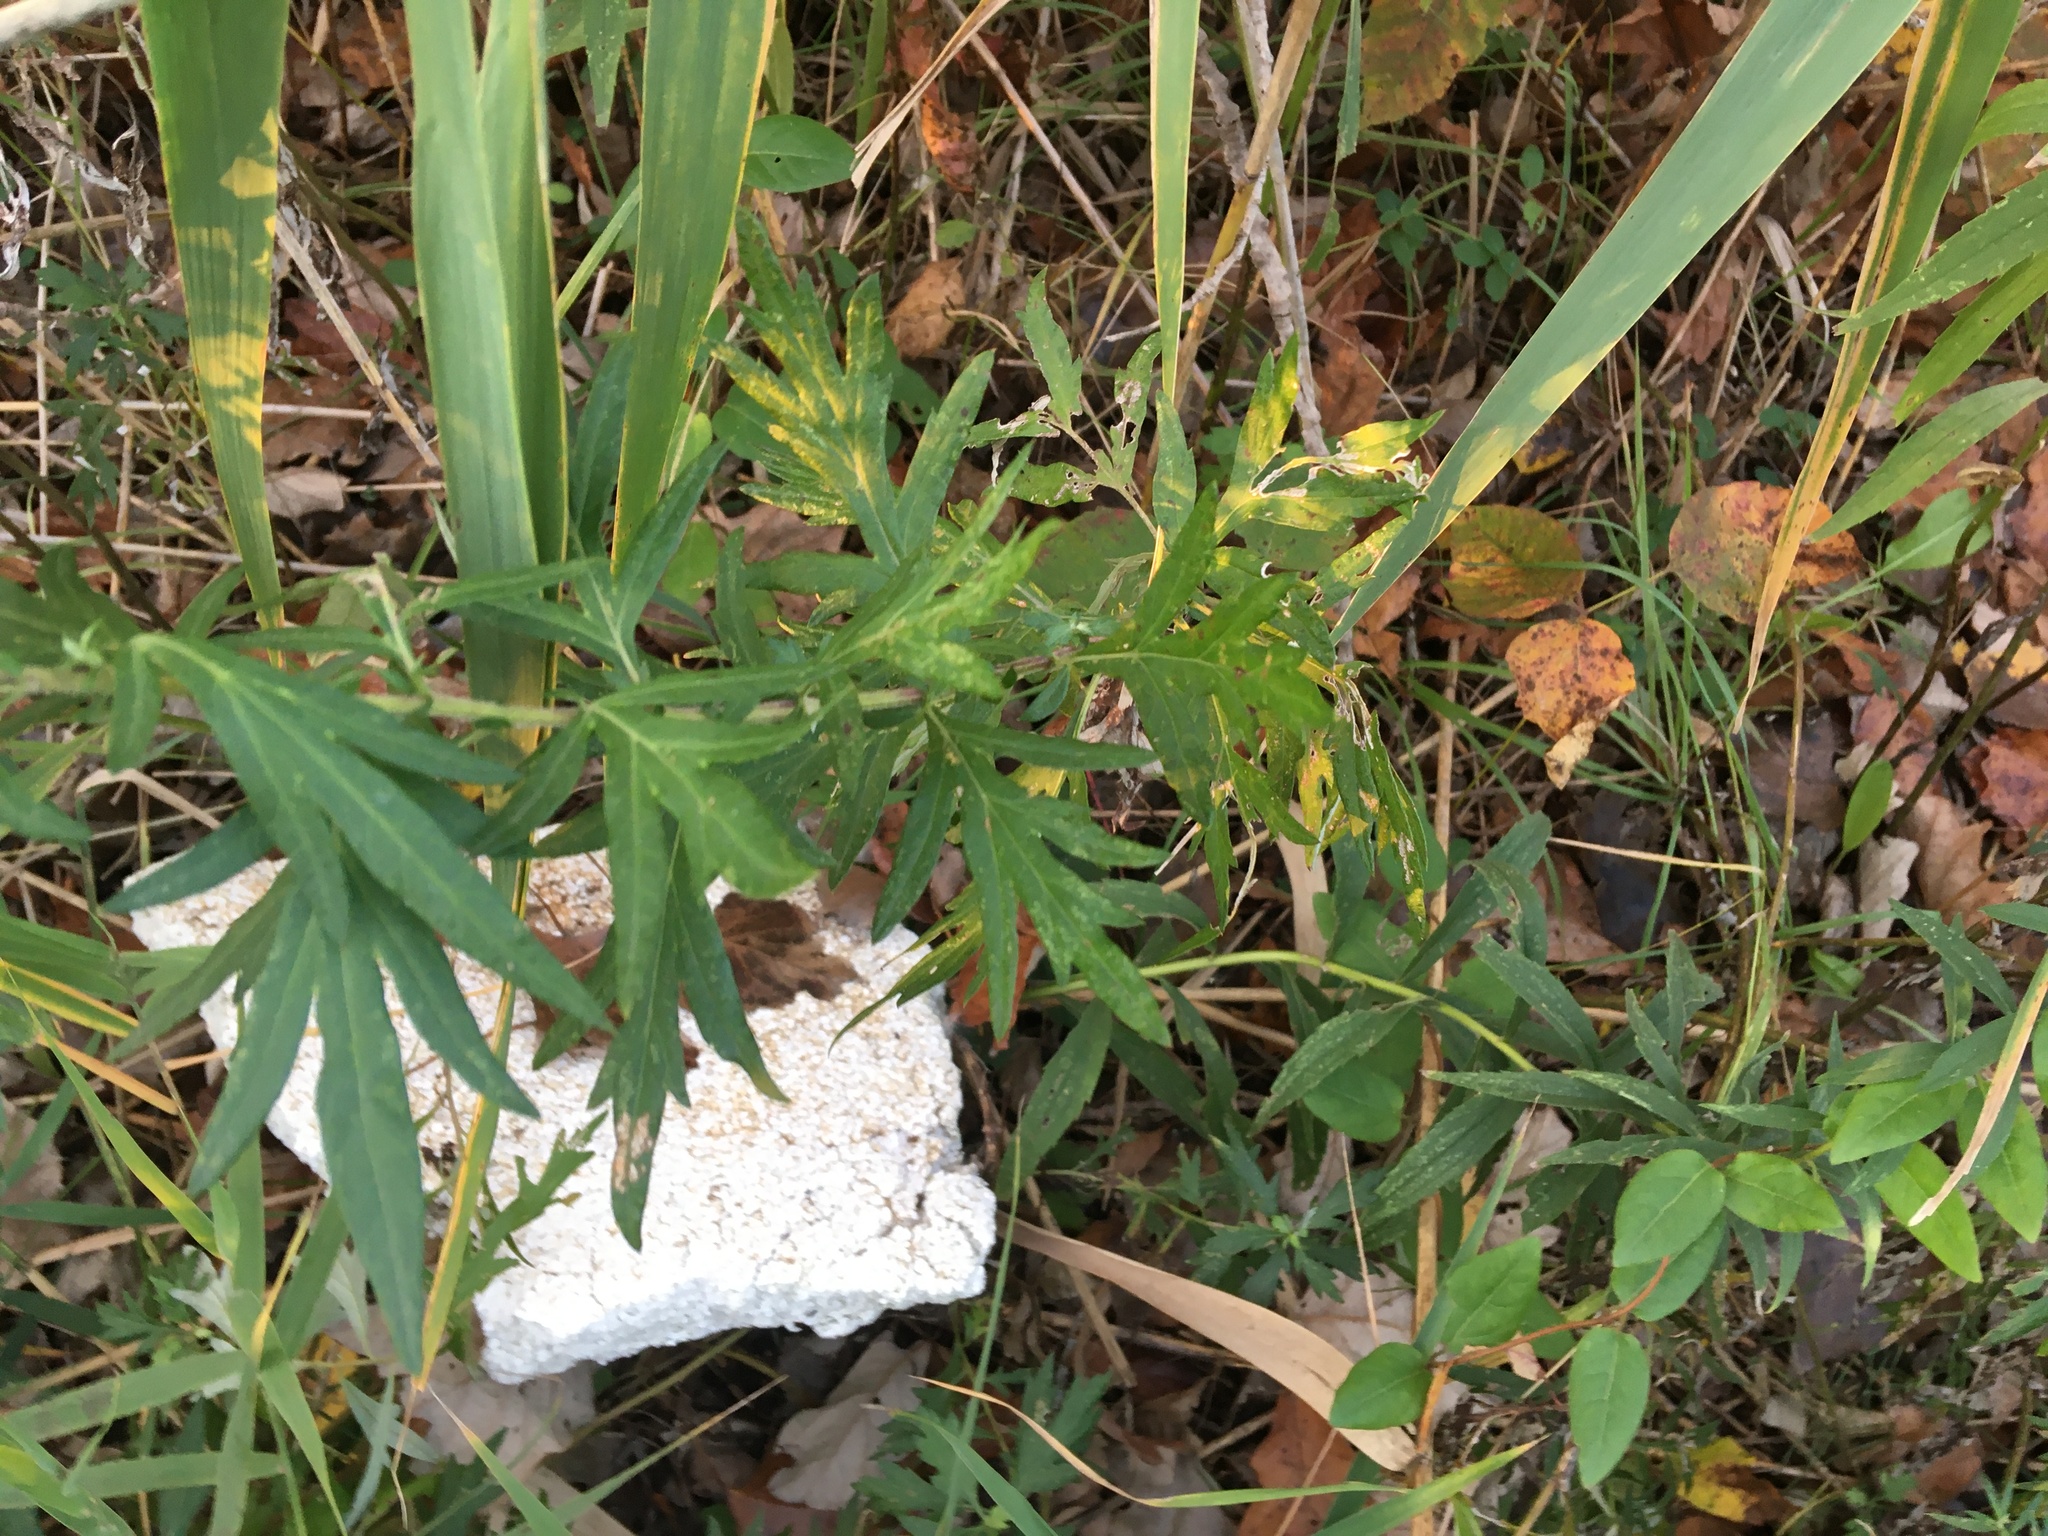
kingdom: Plantae
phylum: Tracheophyta
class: Magnoliopsida
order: Asterales
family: Asteraceae
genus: Artemisia
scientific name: Artemisia vulgaris
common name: Mugwort
